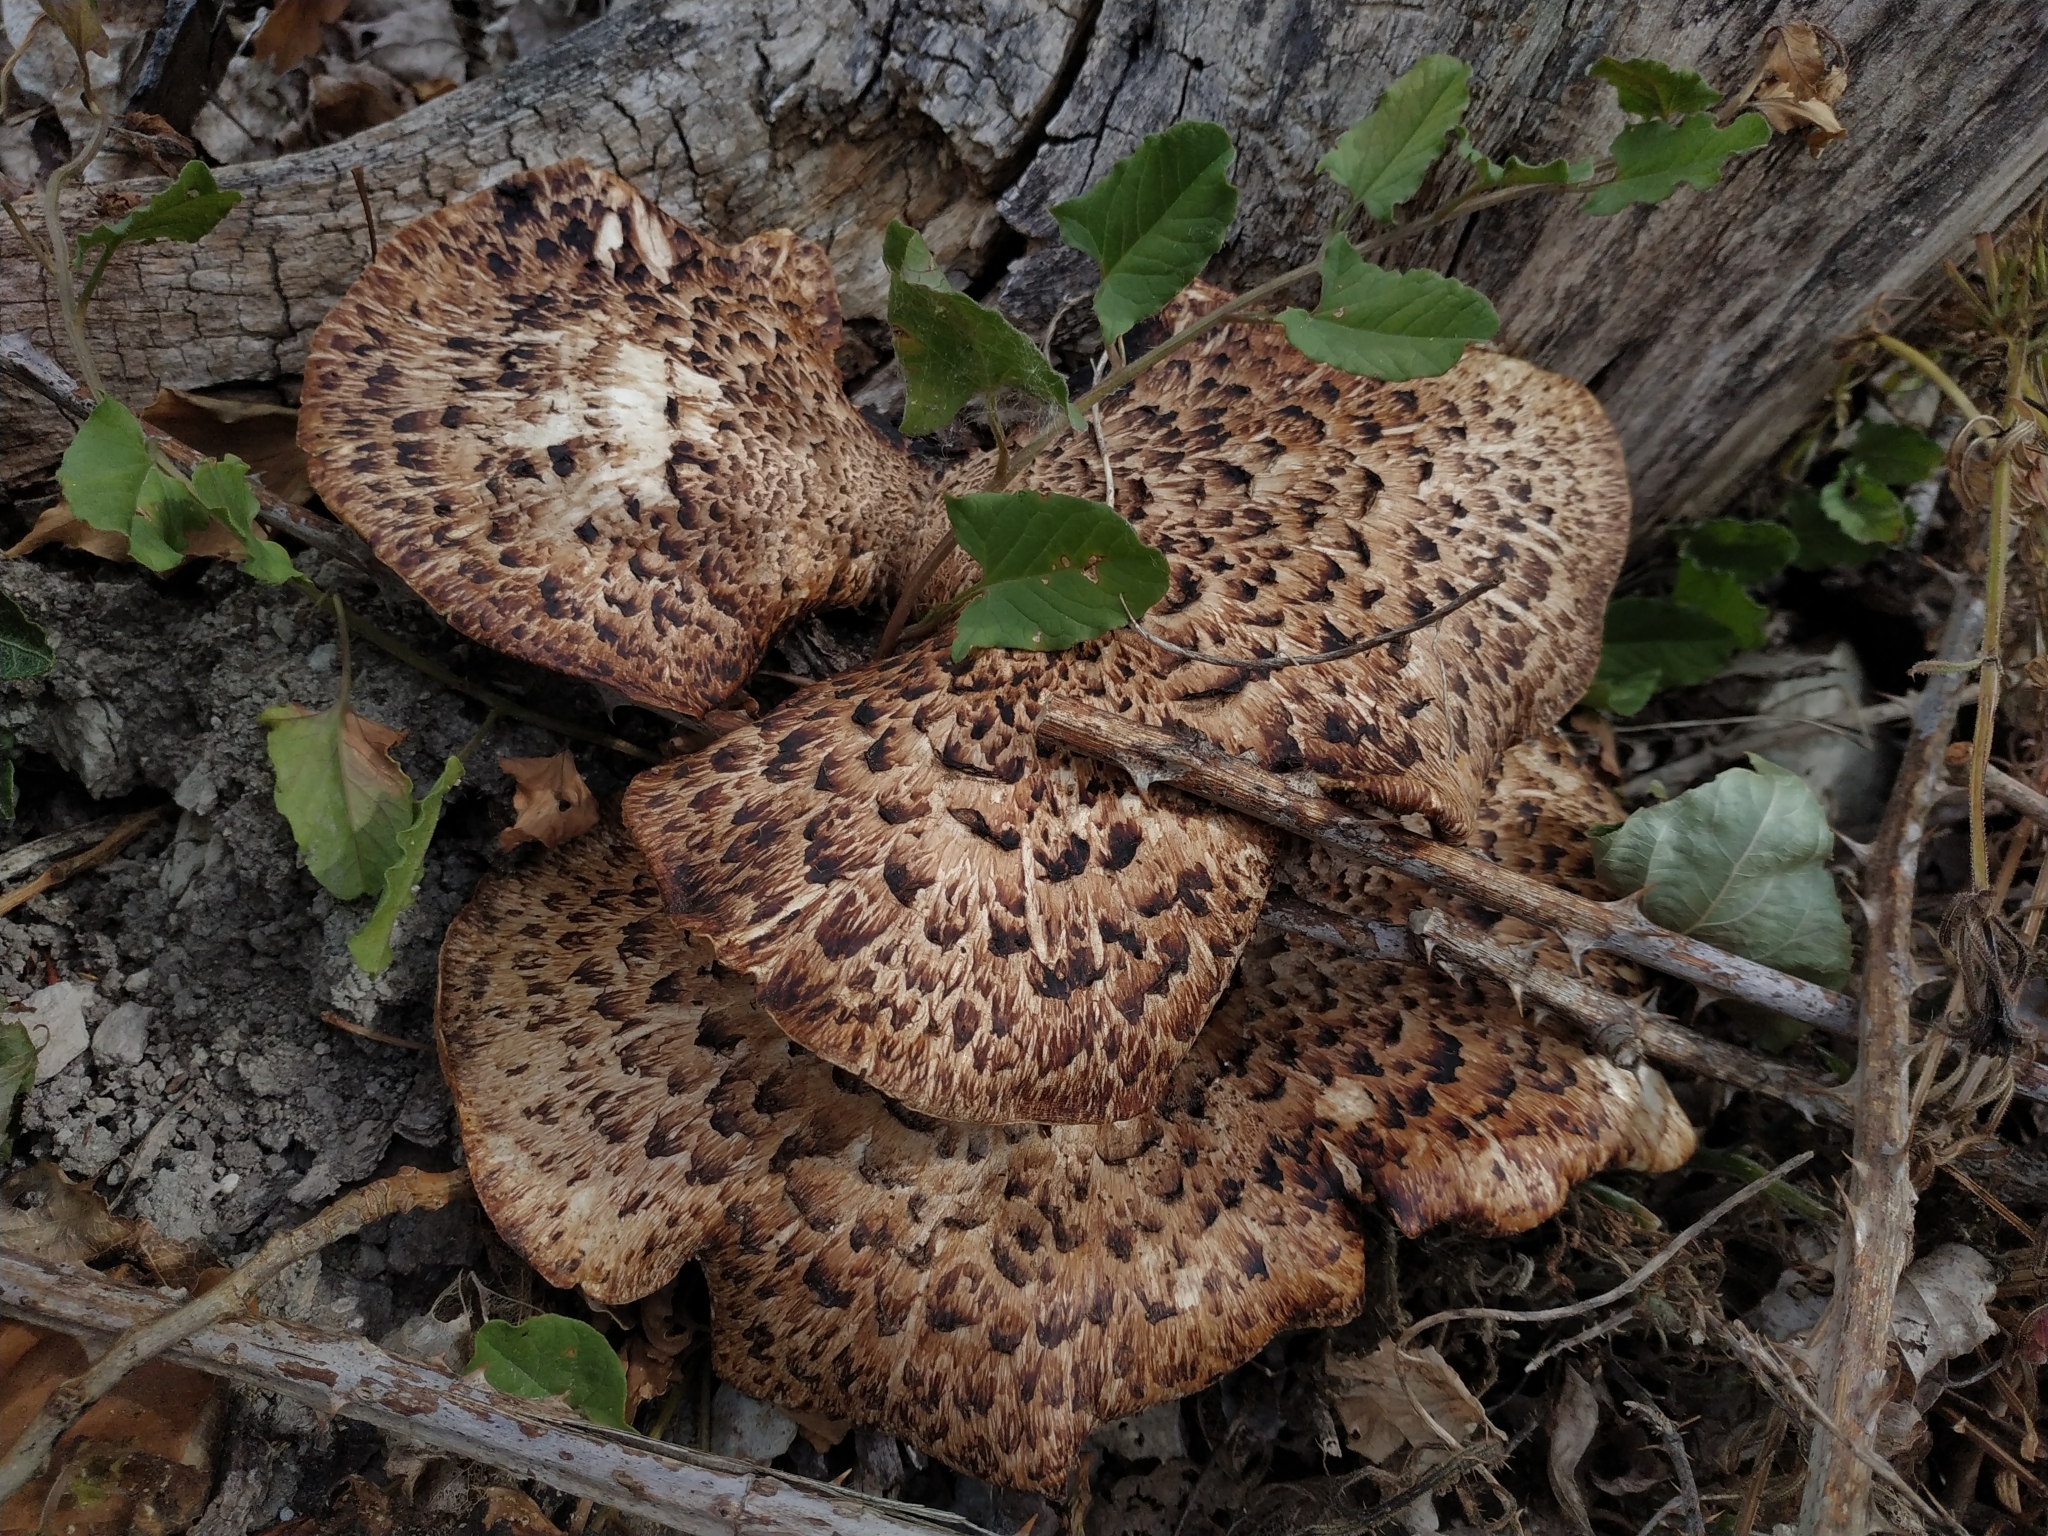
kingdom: Fungi
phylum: Basidiomycota
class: Agaricomycetes
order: Polyporales
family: Polyporaceae
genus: Cerioporus
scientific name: Cerioporus squamosus
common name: Dryad's saddle
